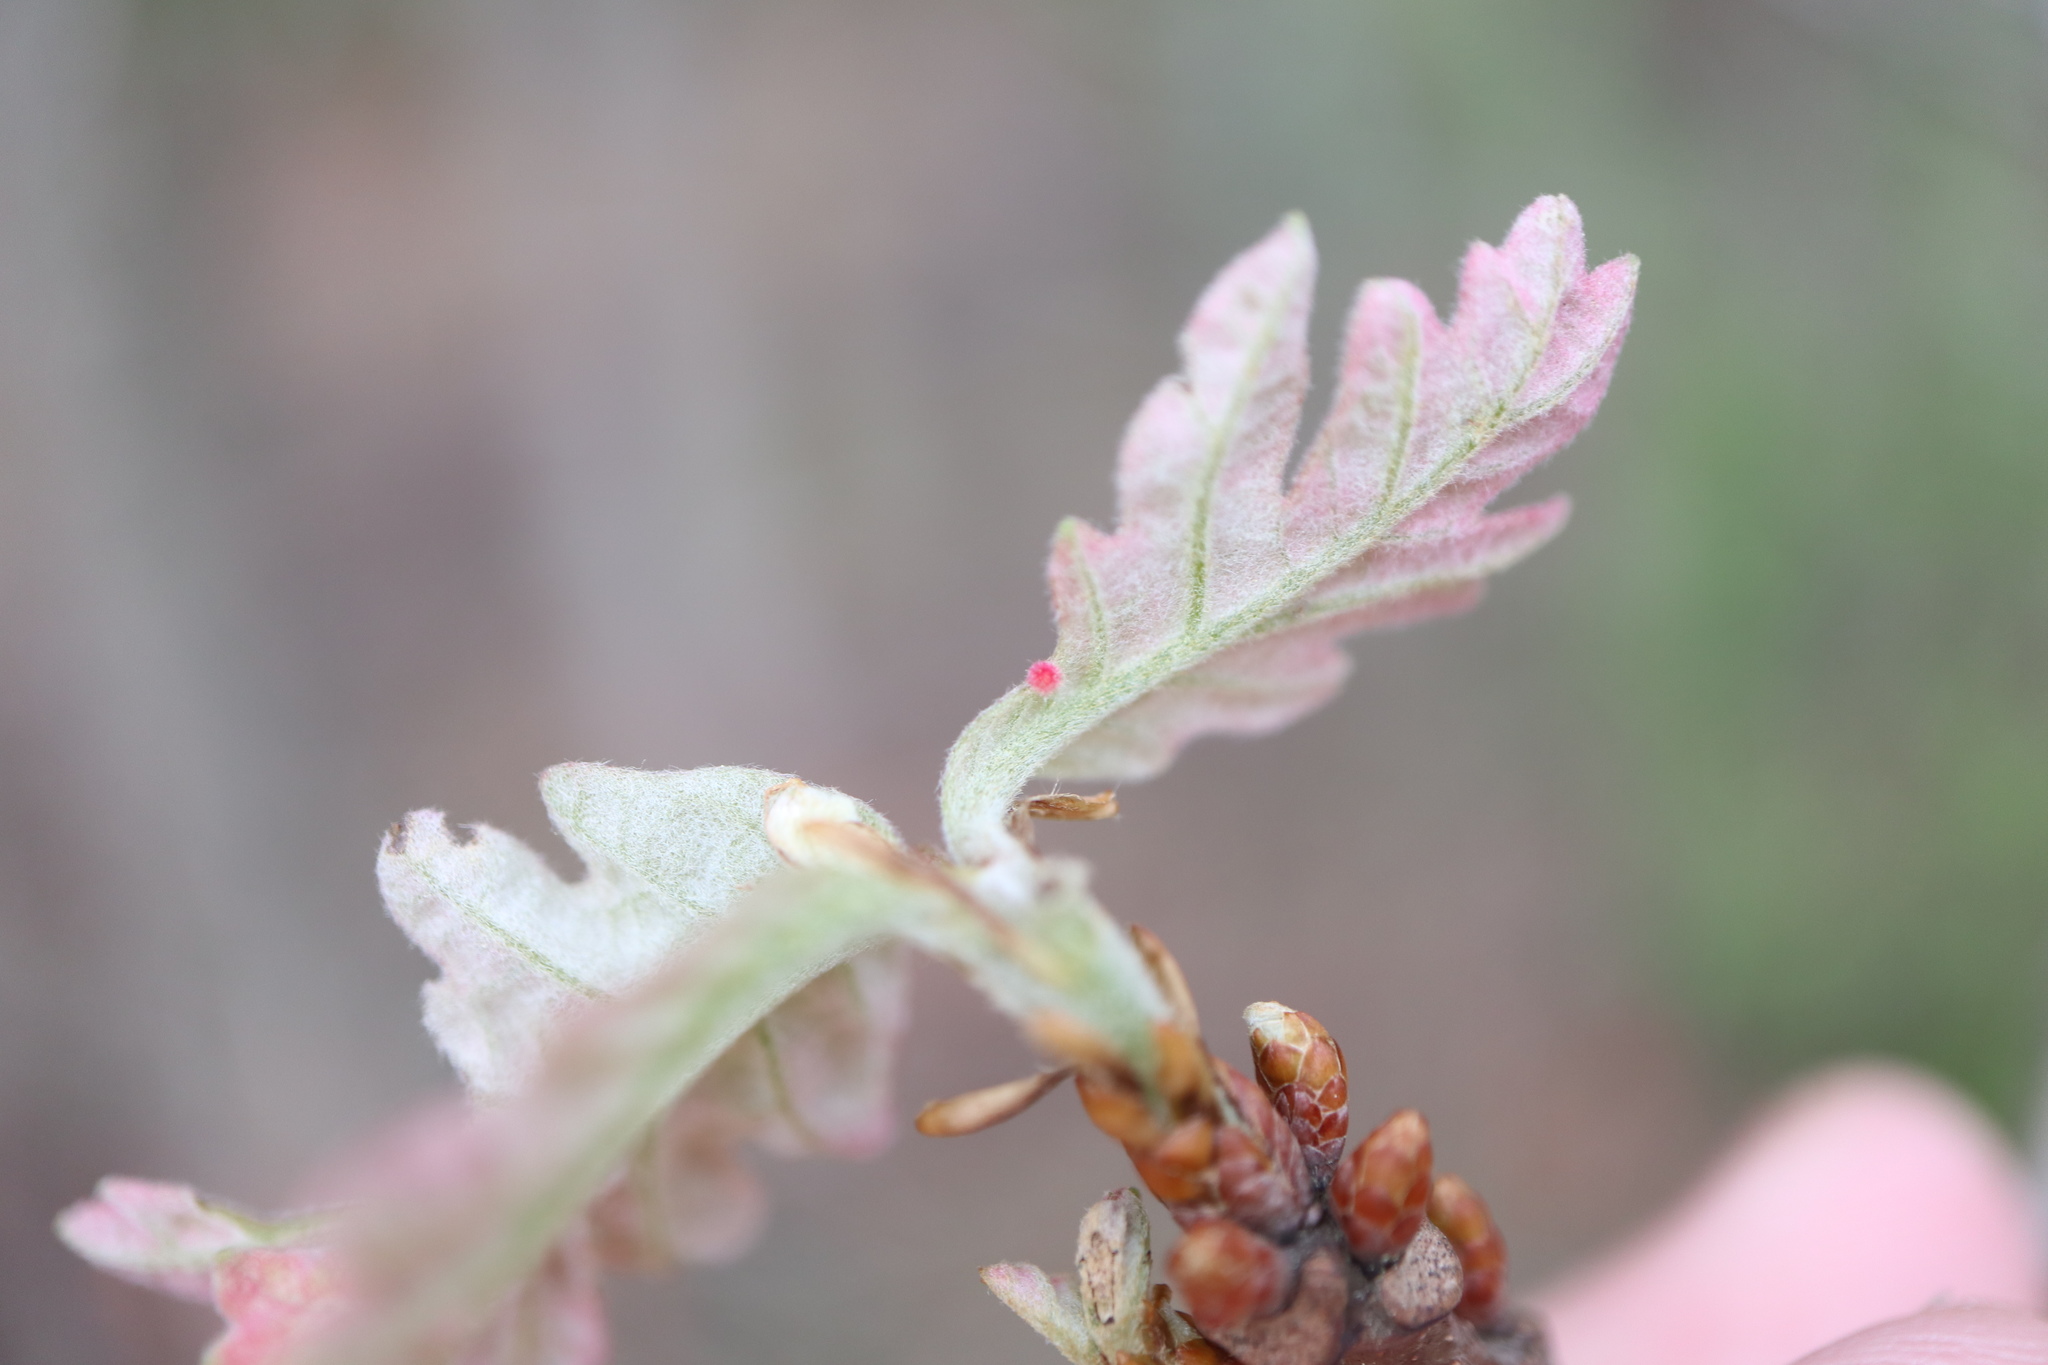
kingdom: Animalia
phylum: Arthropoda
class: Insecta
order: Hymenoptera
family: Cynipidae
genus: Andricus
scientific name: Andricus
